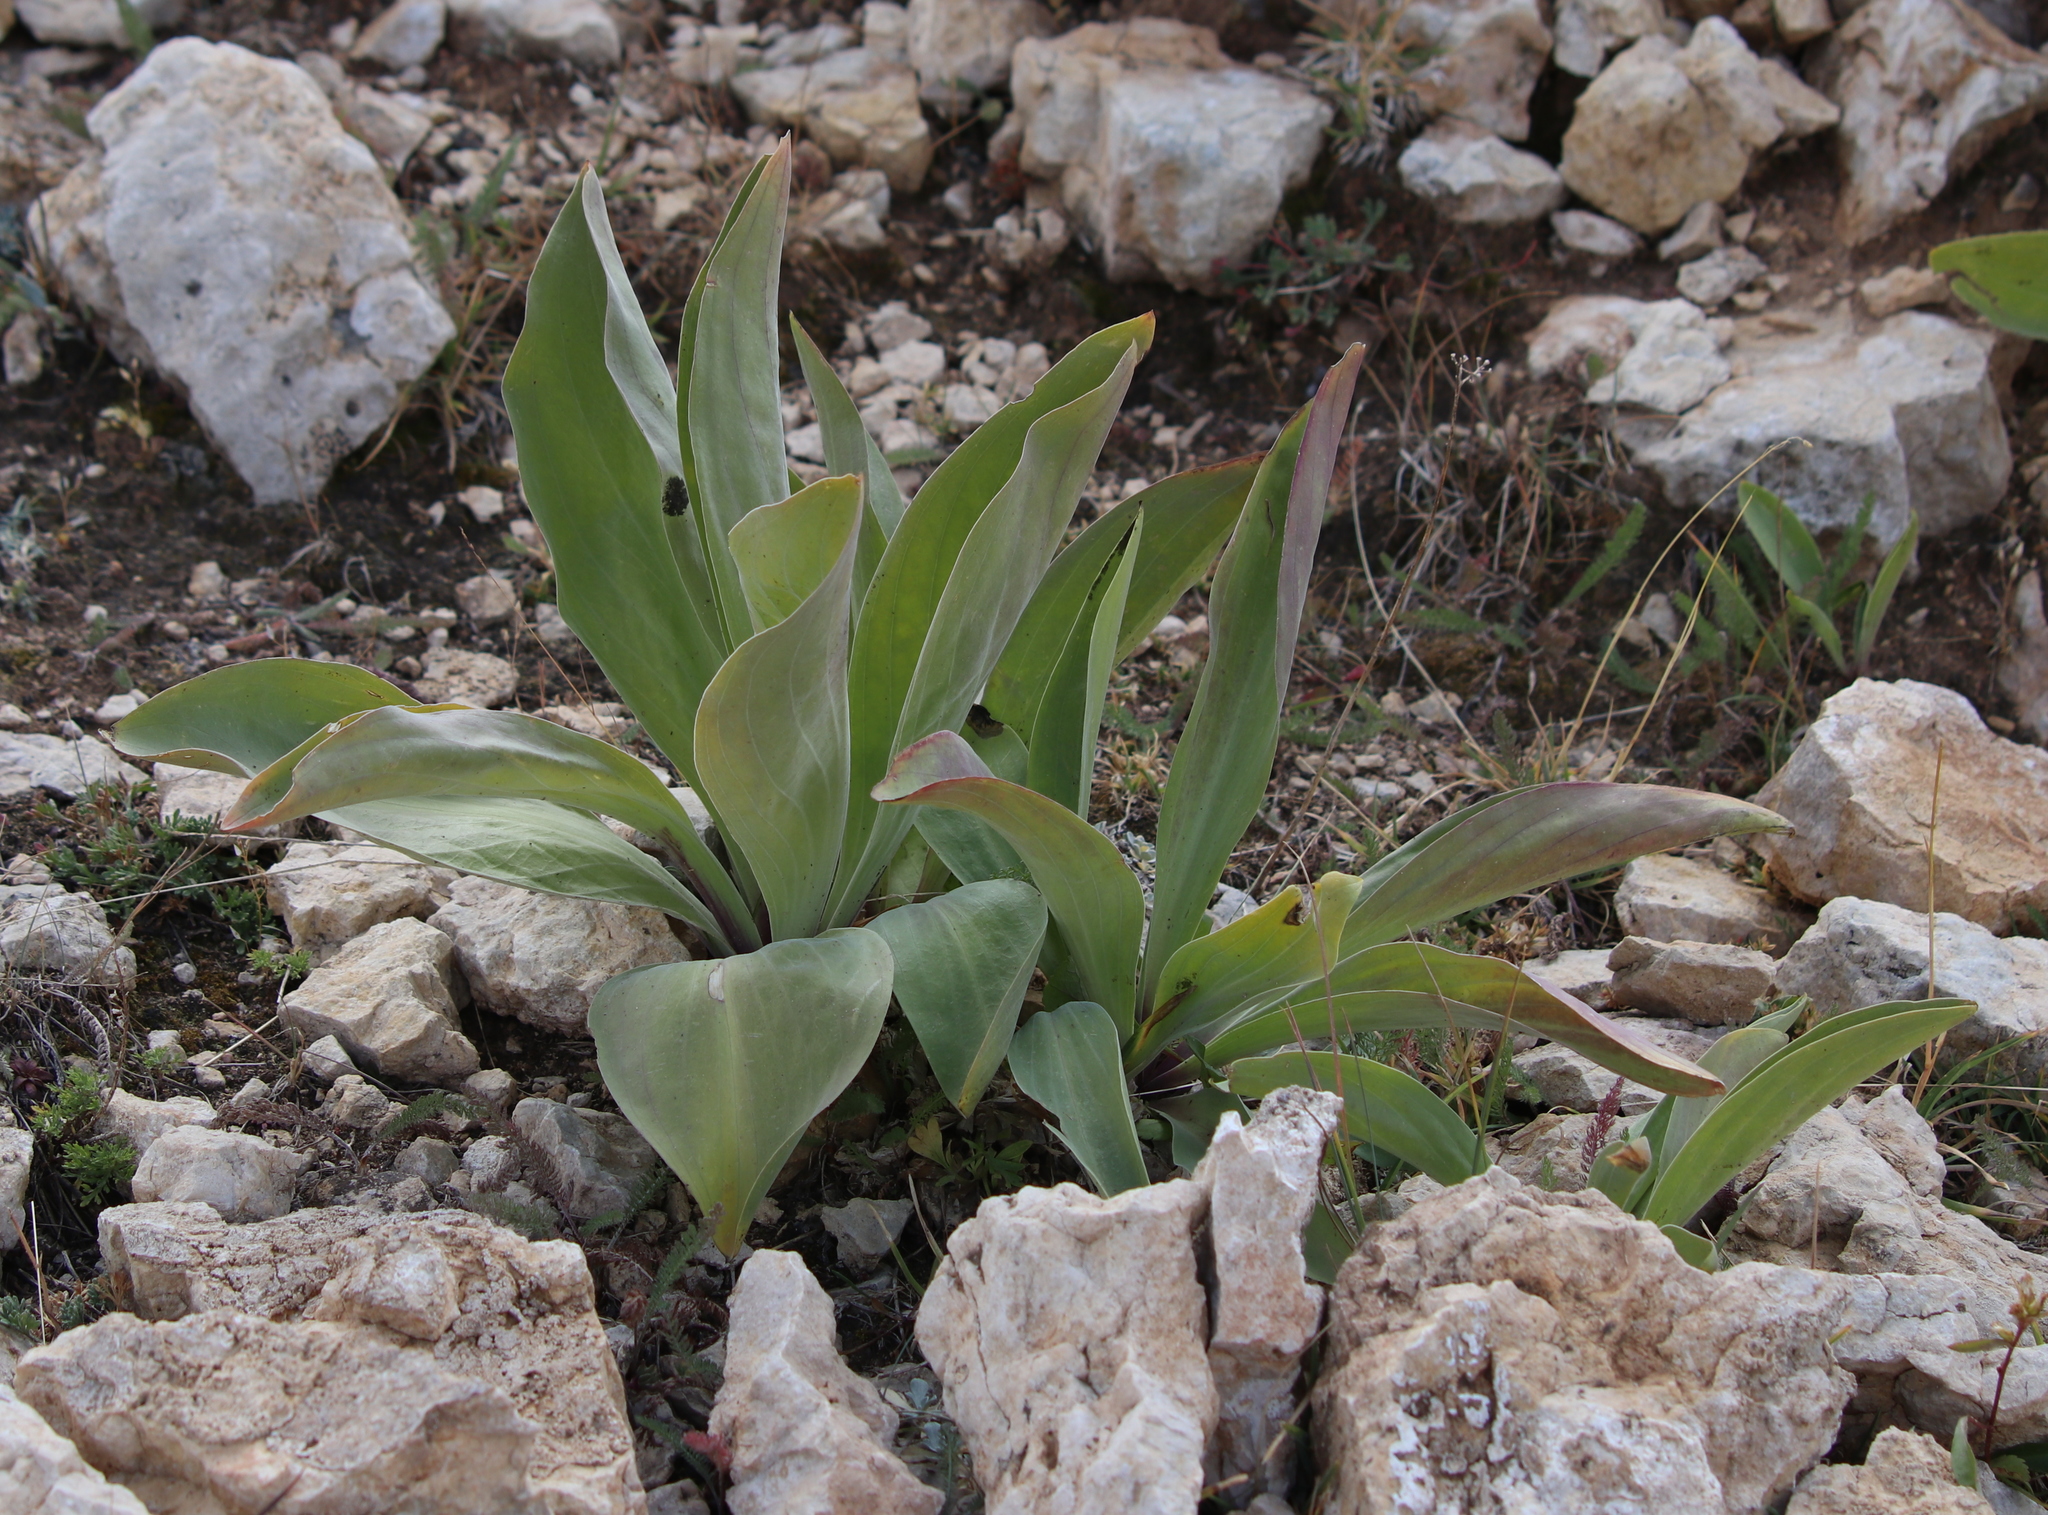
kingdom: Plantae
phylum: Tracheophyta
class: Magnoliopsida
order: Gentianales
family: Gentianaceae
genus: Frasera
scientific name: Frasera speciosa
